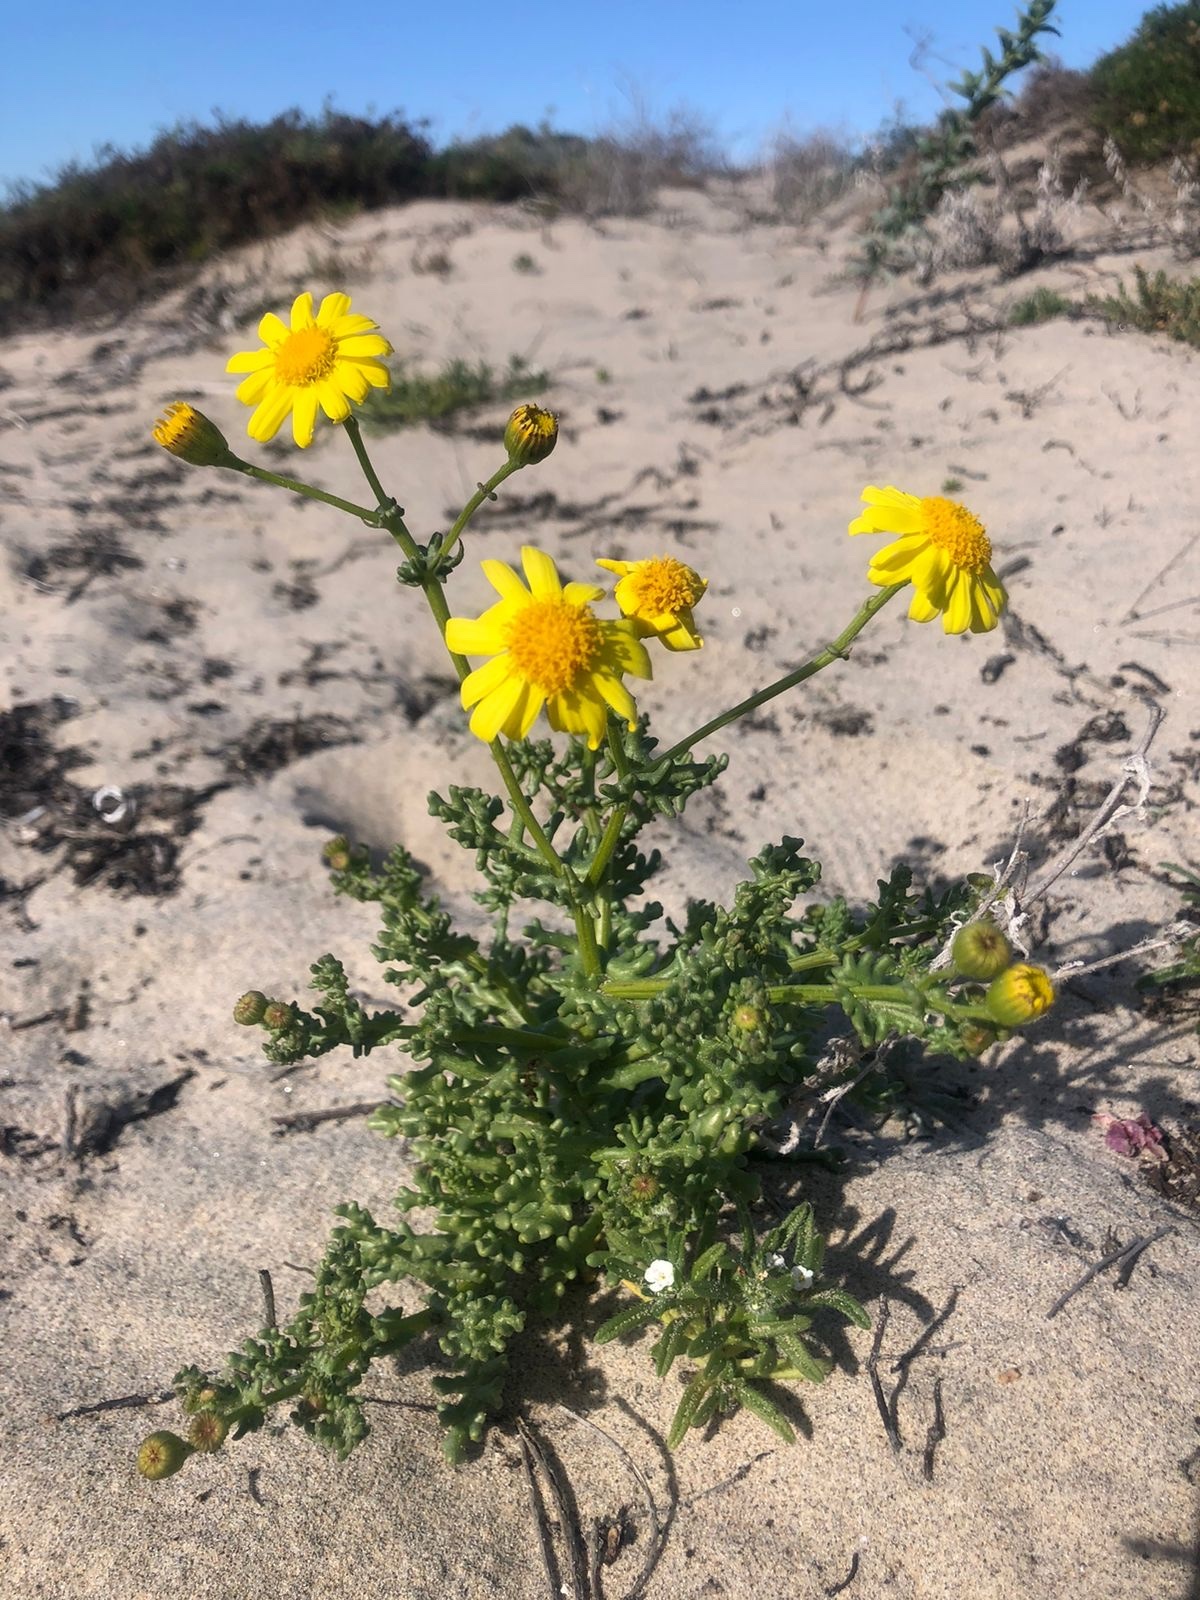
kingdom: Plantae
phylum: Tracheophyta
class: Magnoliopsida
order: Asterales
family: Asteraceae
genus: Senecio
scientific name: Senecio californicus
